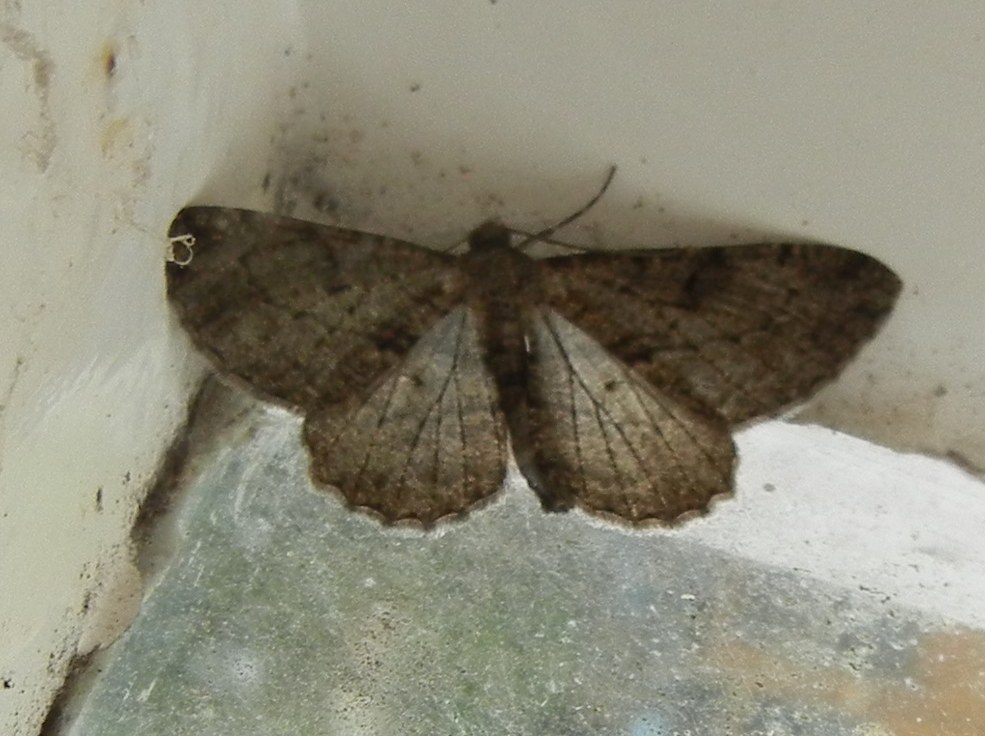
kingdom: Animalia
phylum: Arthropoda
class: Insecta
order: Lepidoptera
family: Geometridae
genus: Peribatodes
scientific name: Peribatodes rhomboidaria
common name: Willow beauty
